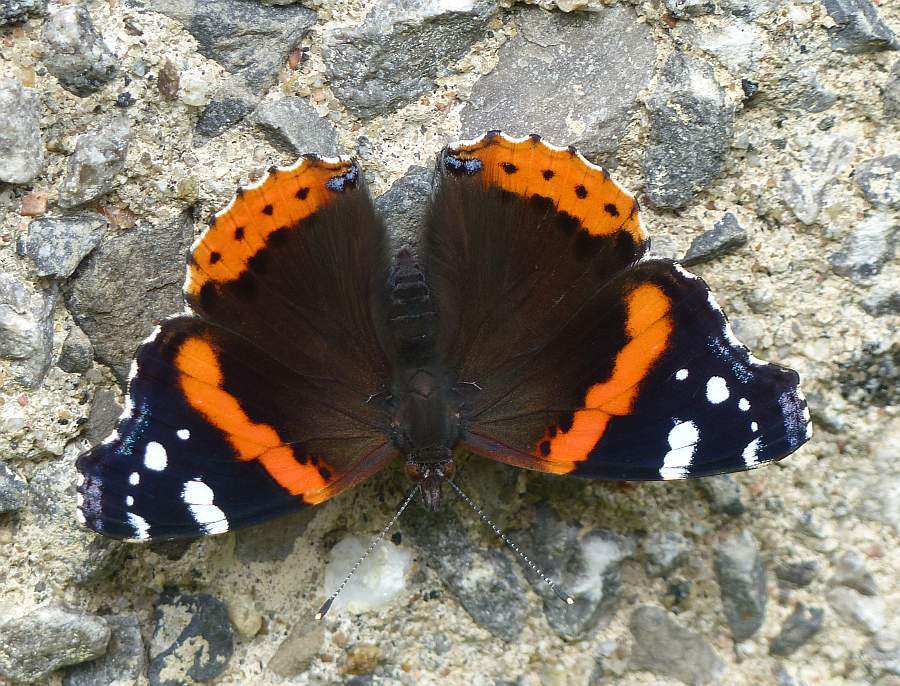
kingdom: Animalia
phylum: Arthropoda
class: Insecta
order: Lepidoptera
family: Nymphalidae
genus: Vanessa
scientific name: Vanessa atalanta
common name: Red admiral
